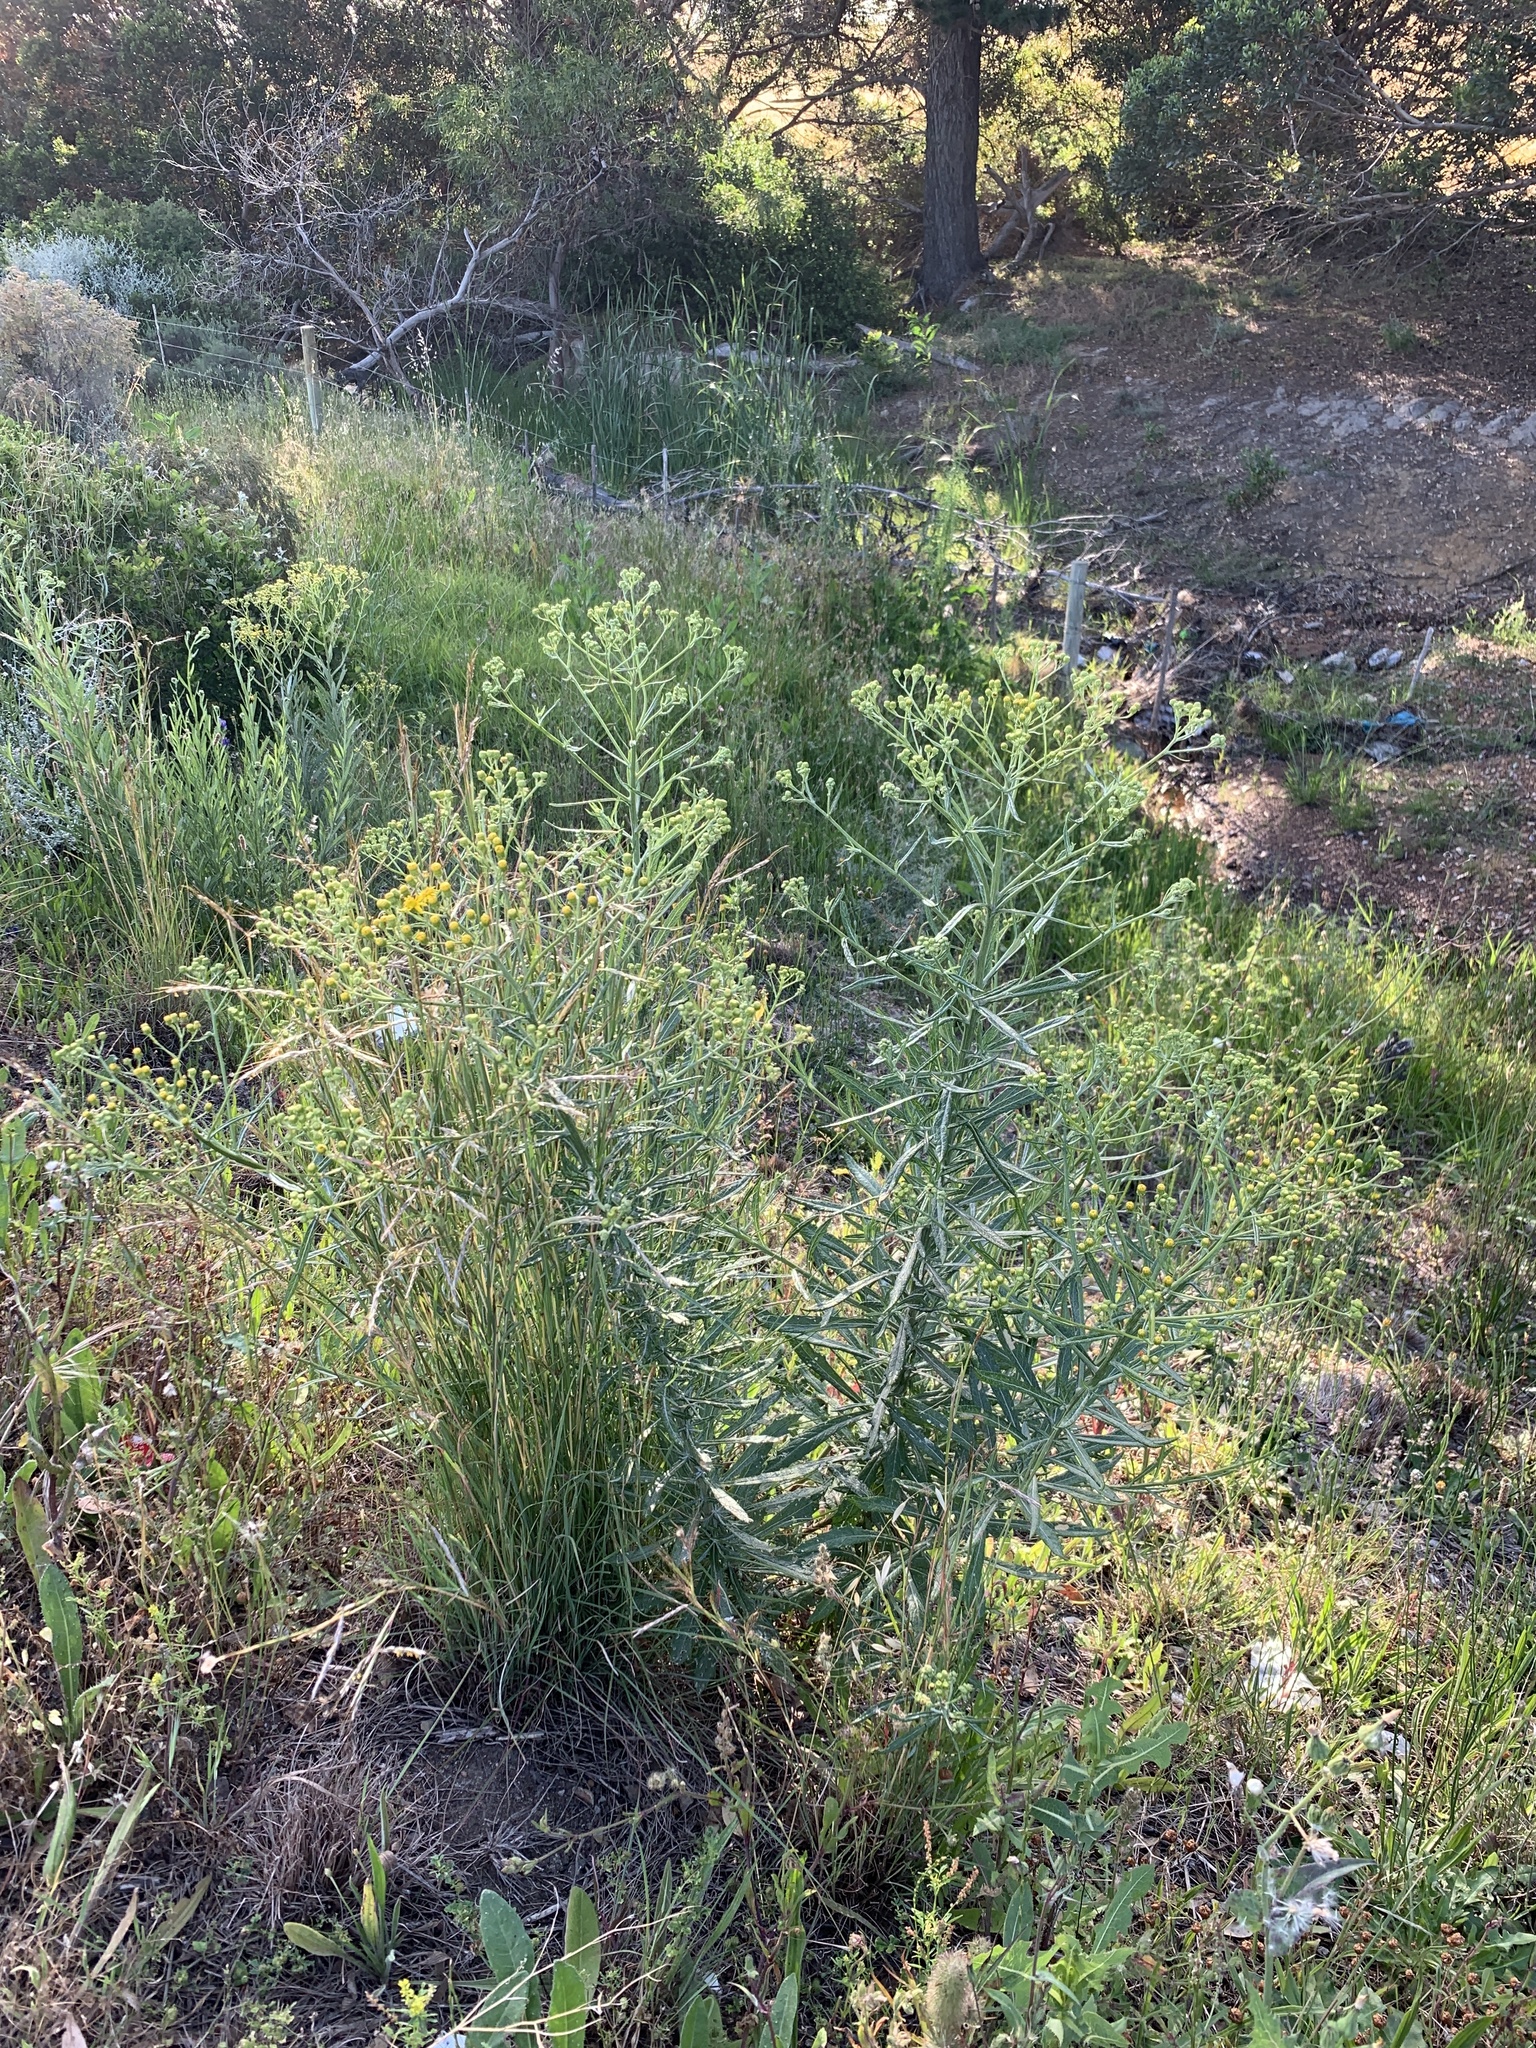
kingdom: Plantae
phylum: Tracheophyta
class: Magnoliopsida
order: Asterales
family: Asteraceae
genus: Senecio
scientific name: Senecio pterophorus
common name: Shoddy ragwort
